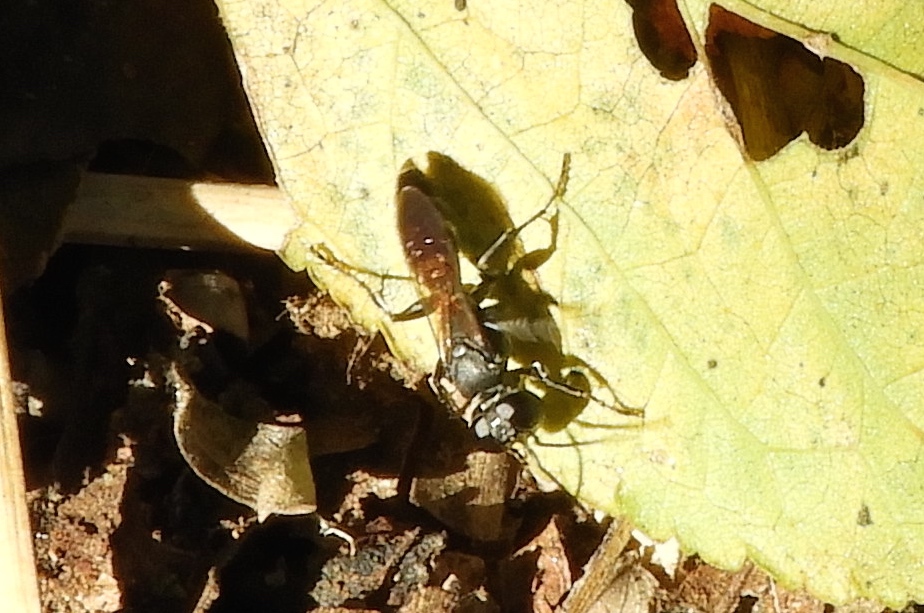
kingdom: Animalia
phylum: Arthropoda
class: Insecta
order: Hymenoptera
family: Crabronidae
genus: Liris
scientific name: Liris
